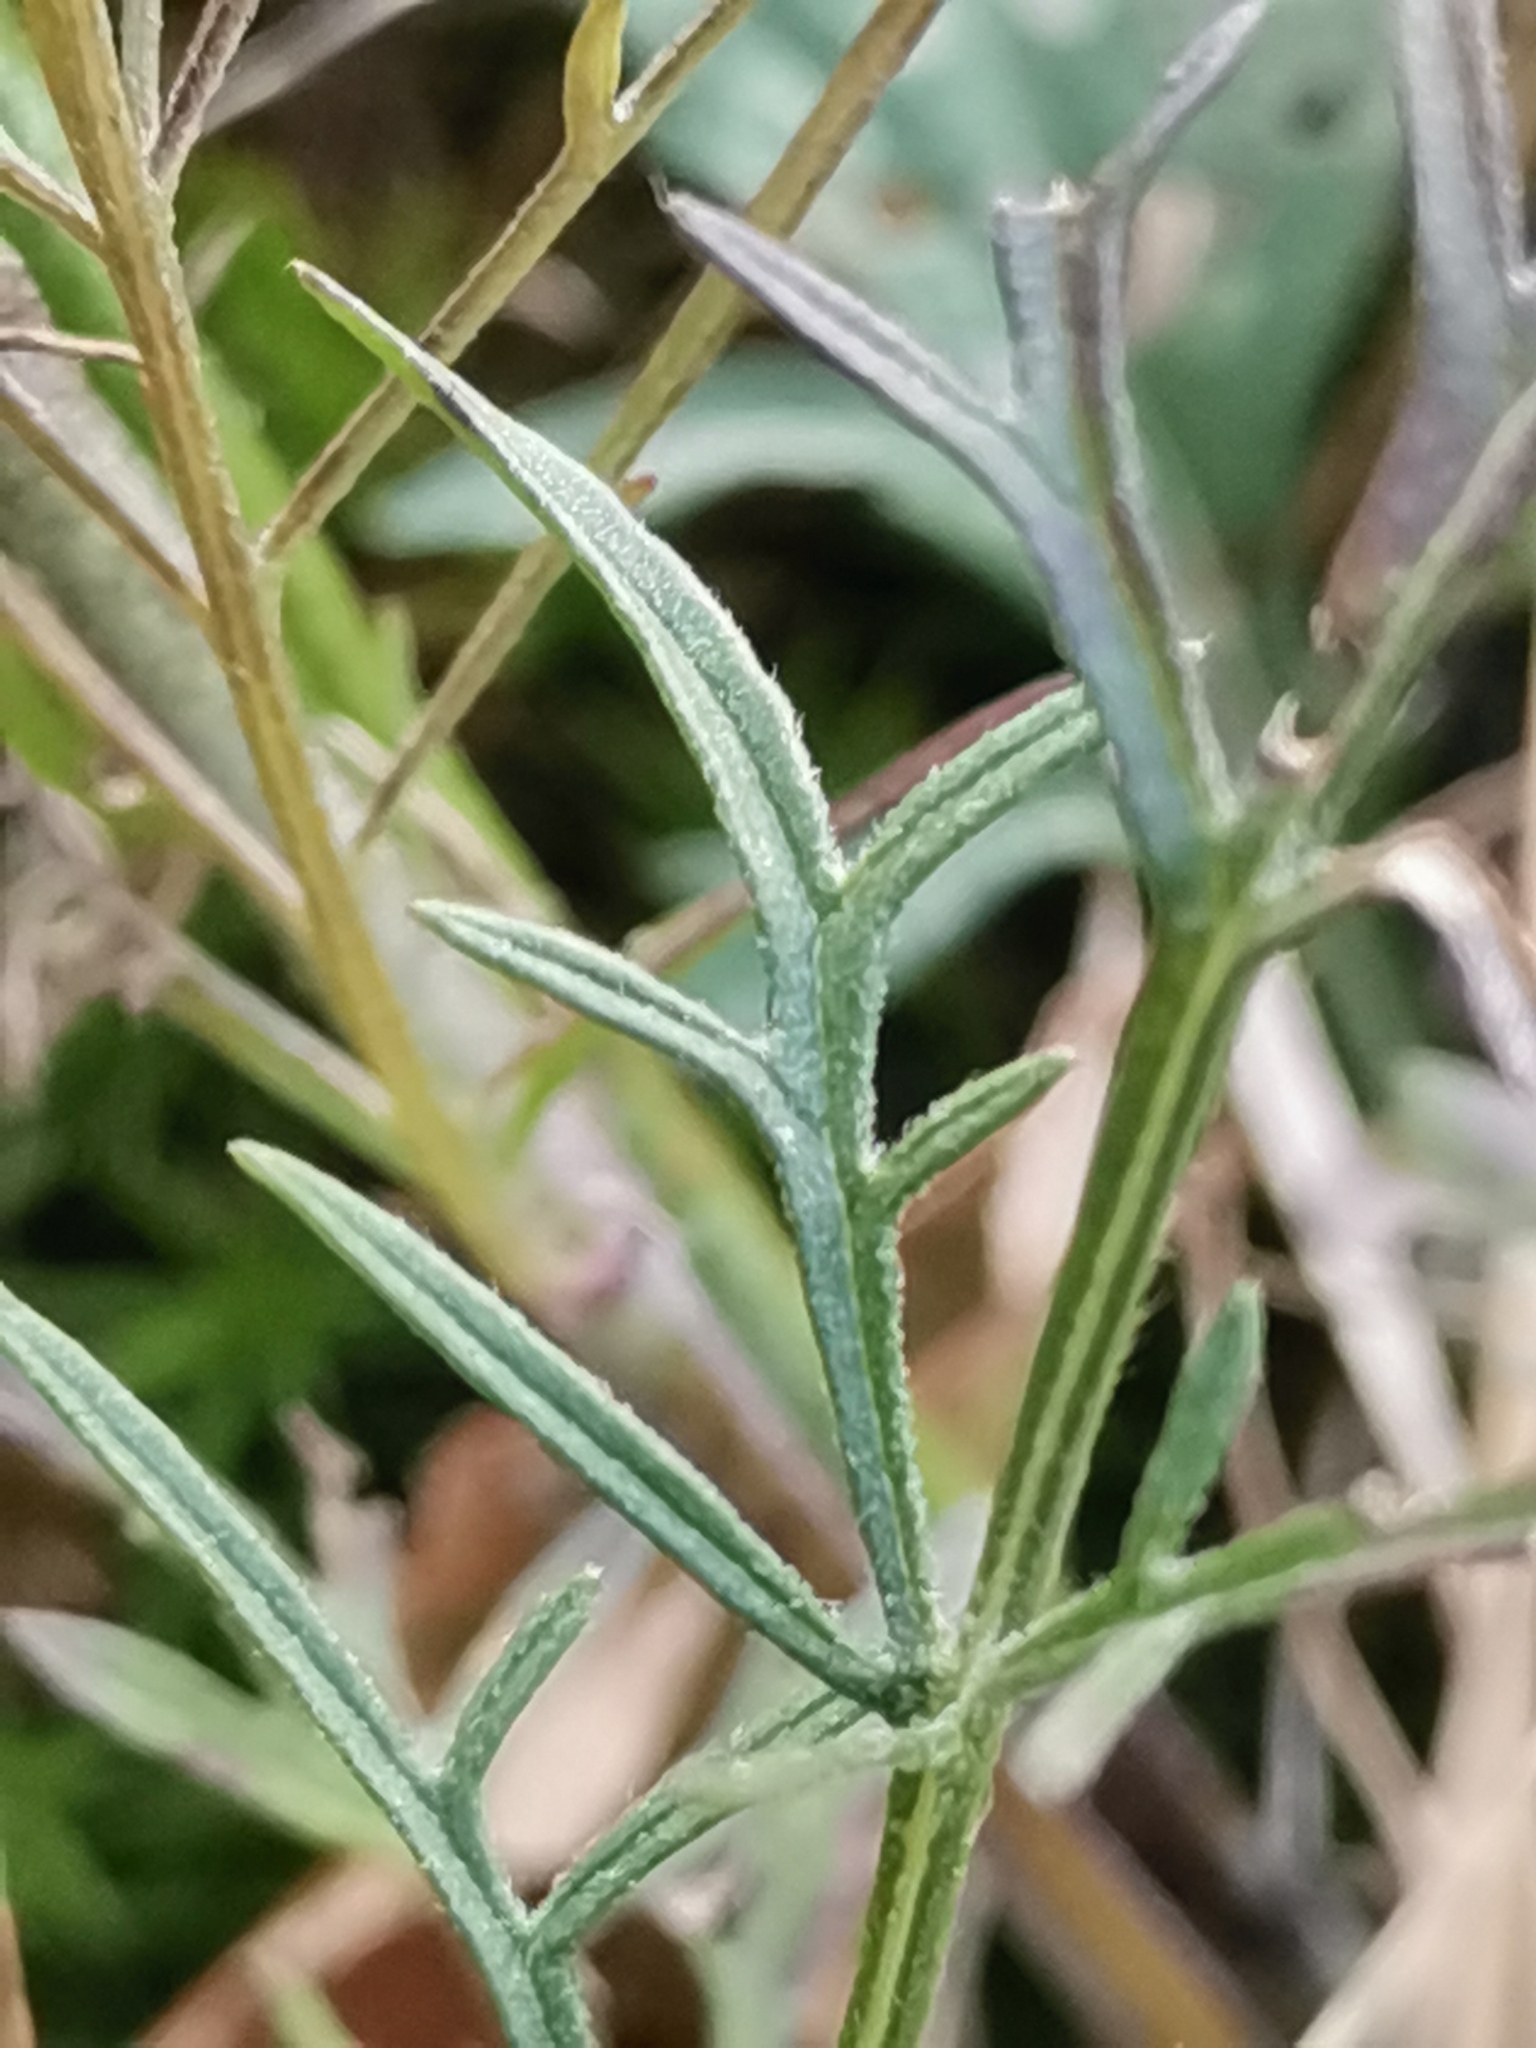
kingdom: Plantae
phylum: Tracheophyta
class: Magnoliopsida
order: Dipsacales
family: Caprifoliaceae
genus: Scabiosa
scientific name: Scabiosa triandra
